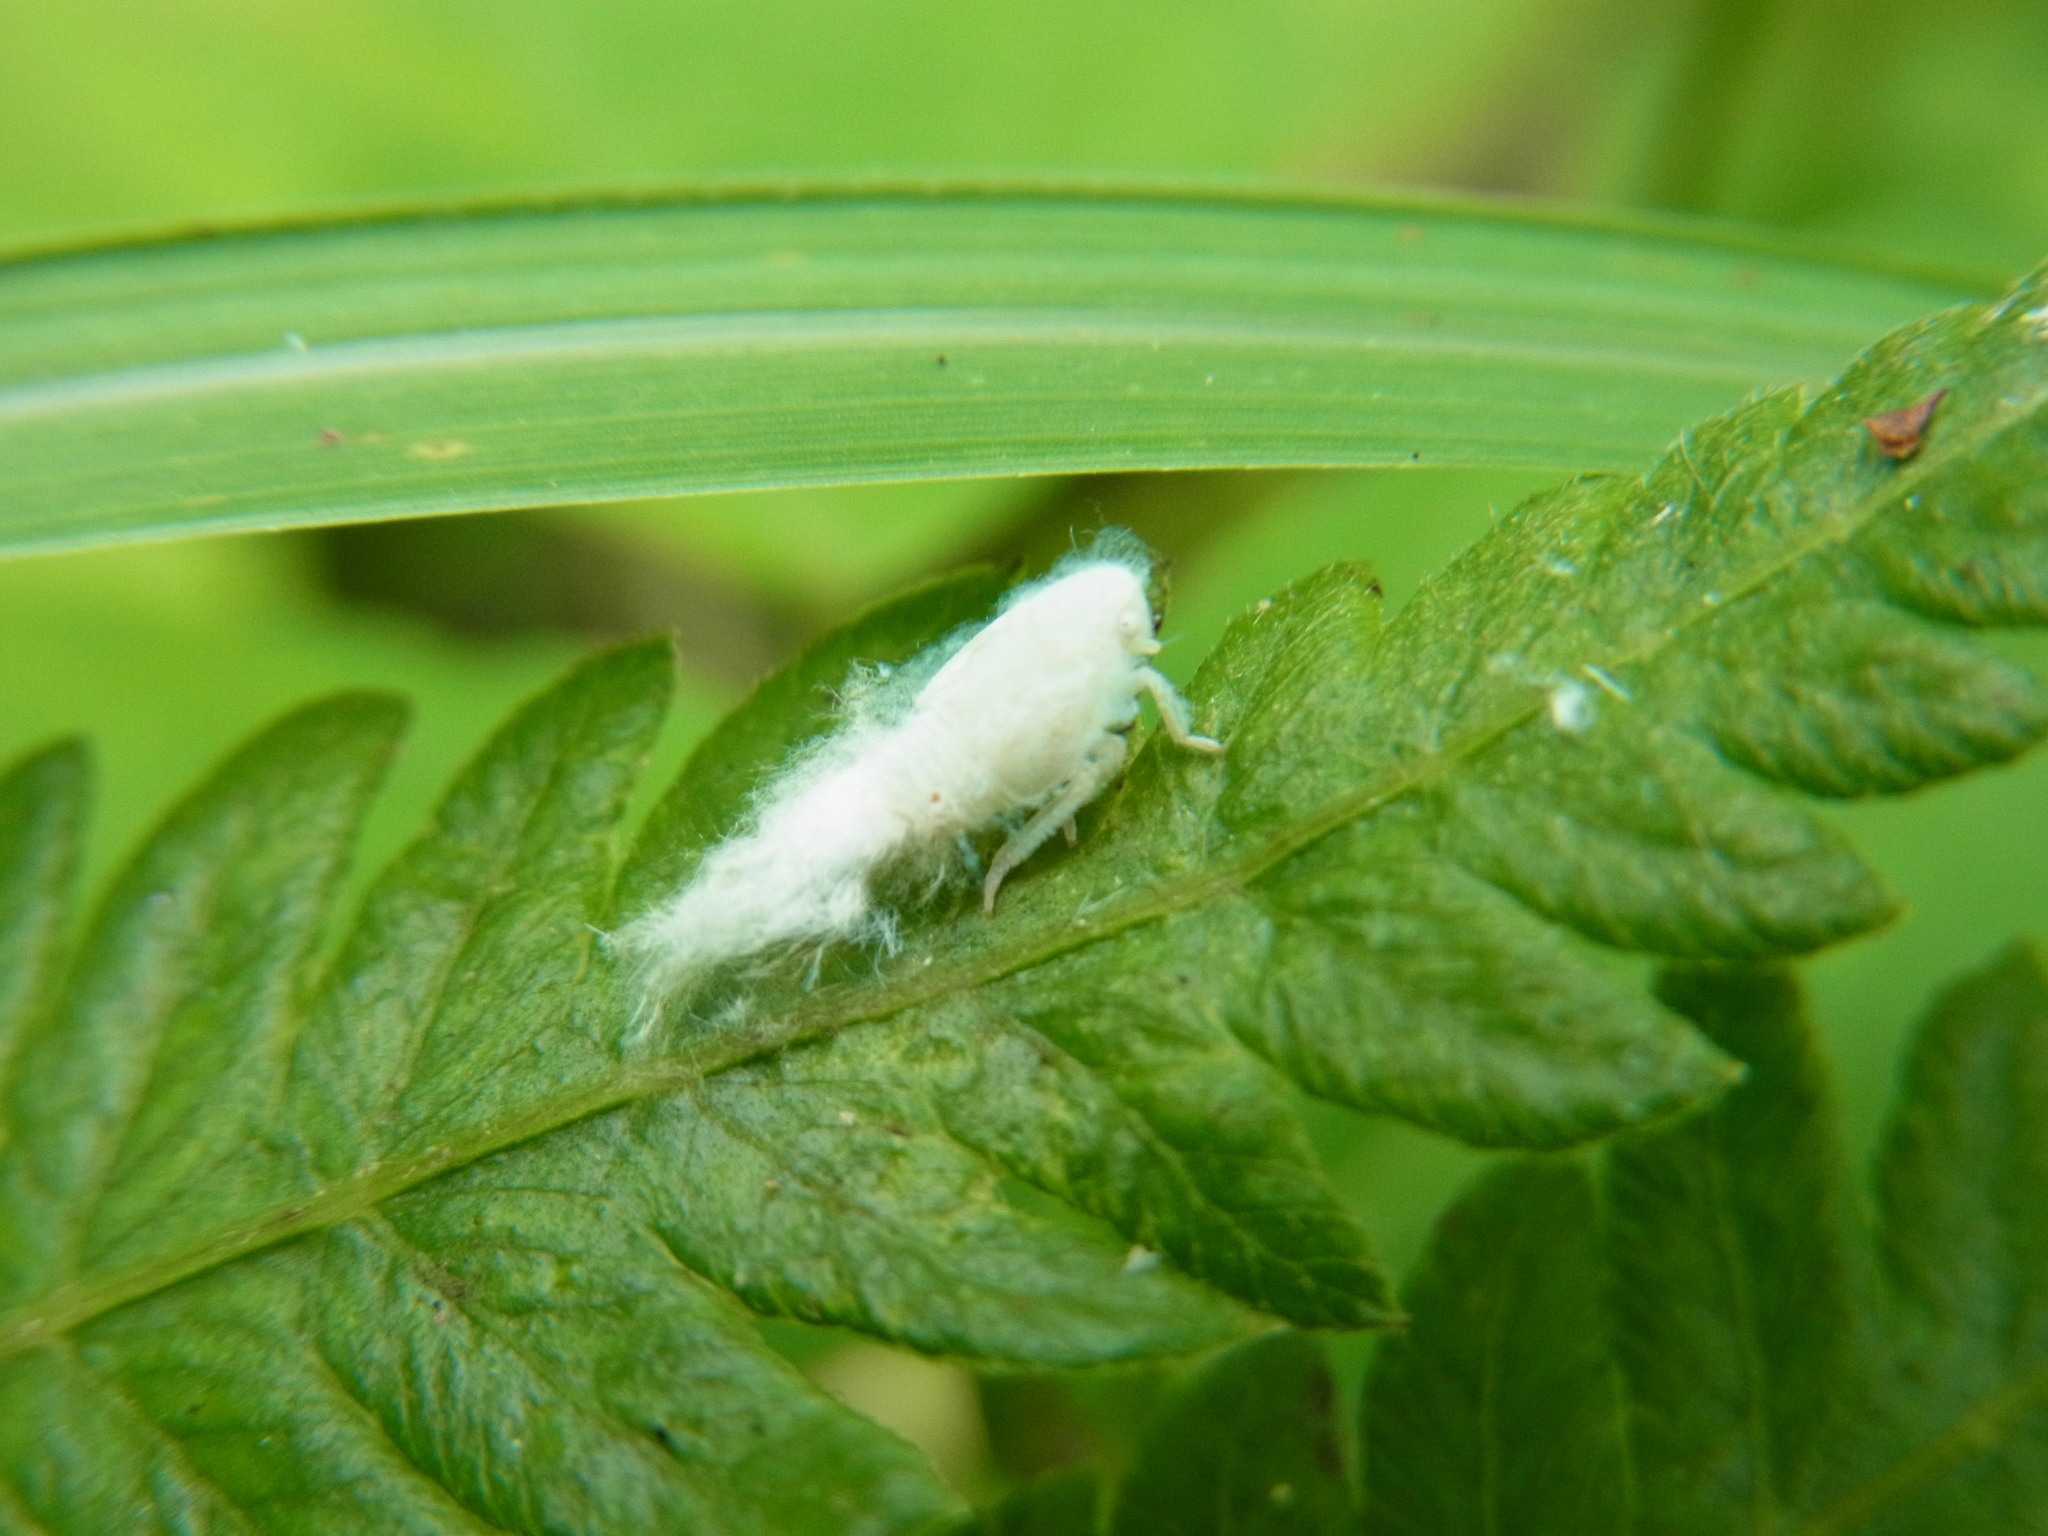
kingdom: Animalia
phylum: Arthropoda
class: Insecta
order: Hemiptera
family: Flatidae
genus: Geisha
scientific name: Geisha distinctissima
